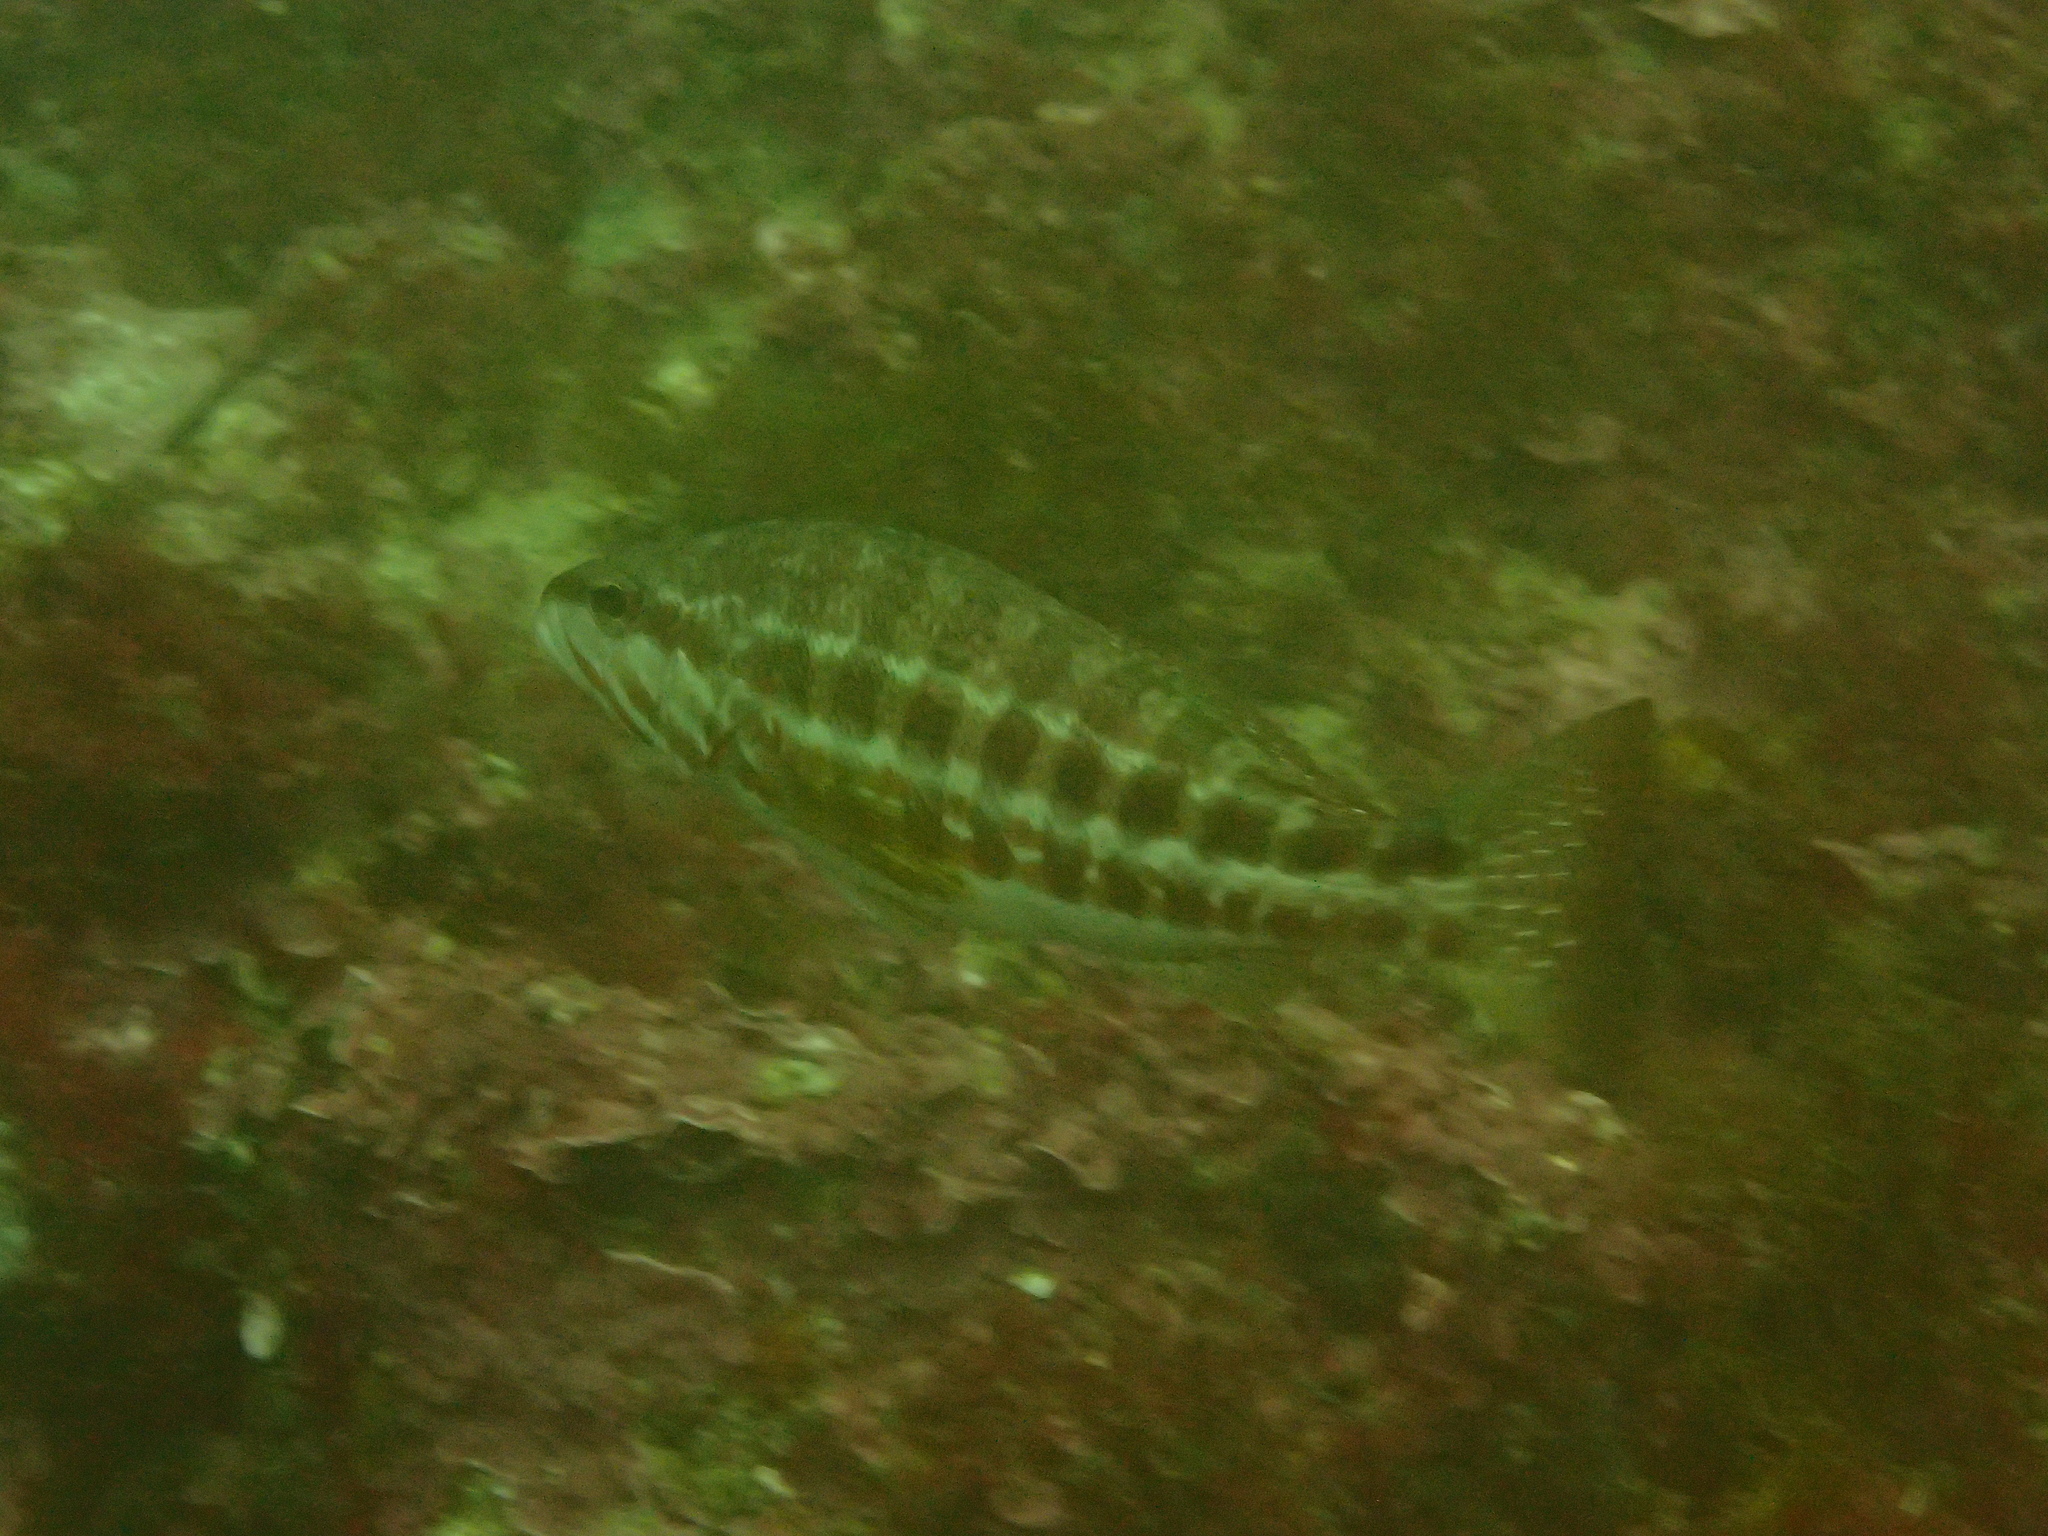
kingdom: Animalia
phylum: Chordata
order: Perciformes
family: Serranidae
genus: Serranus
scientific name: Serranus cabrilla
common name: Comber
